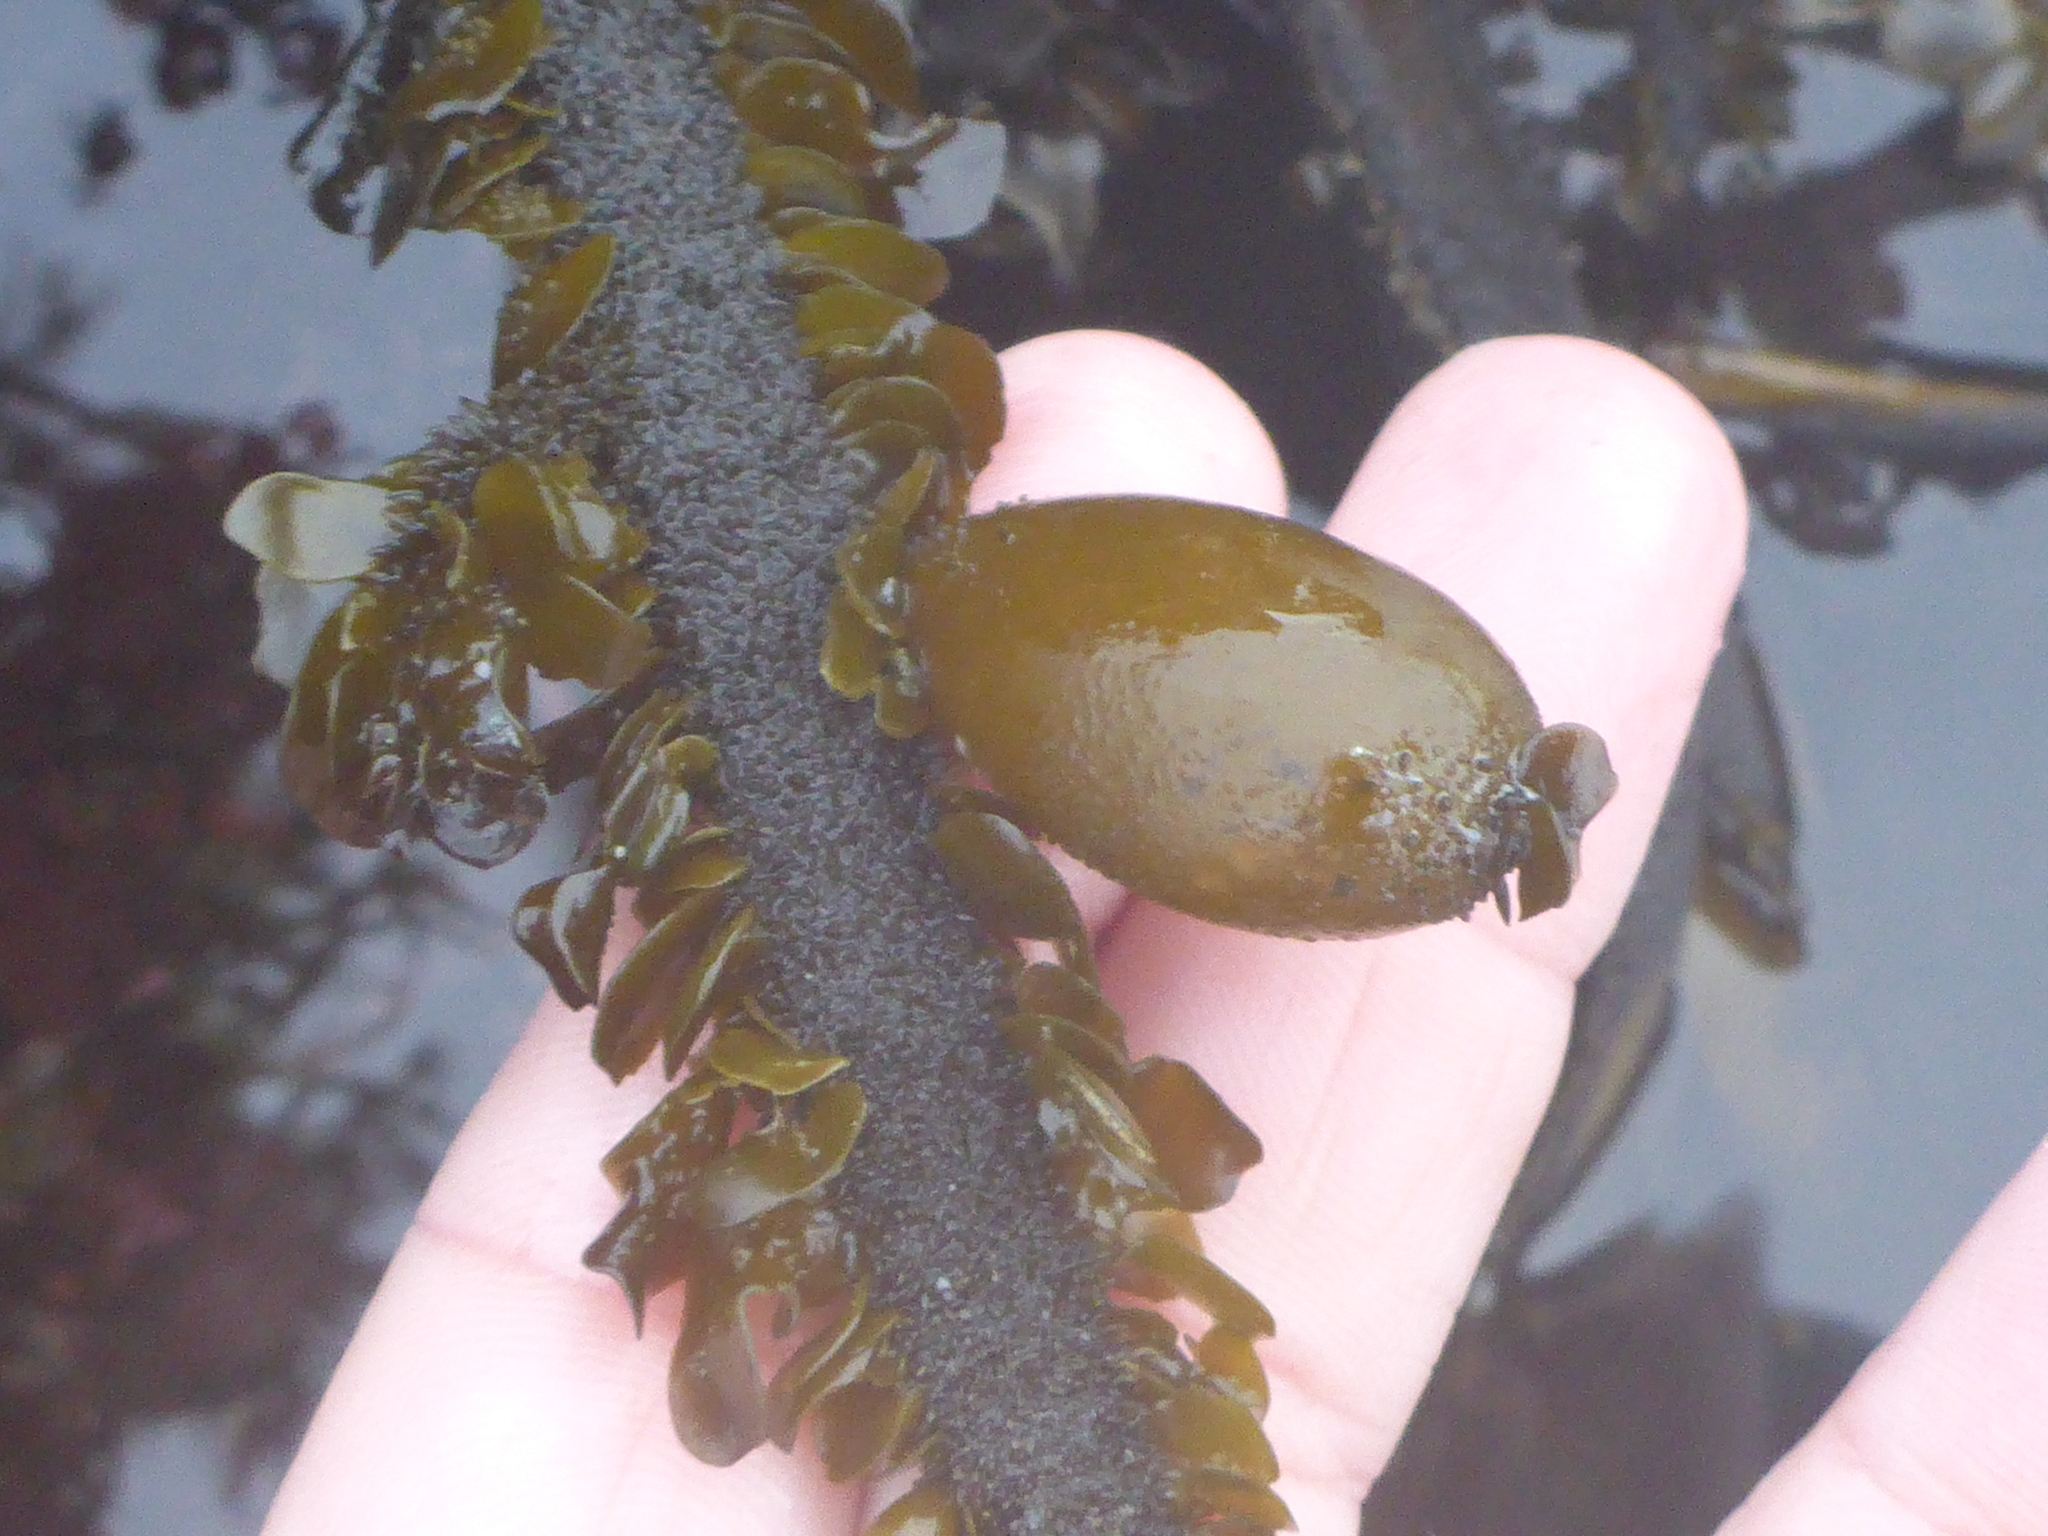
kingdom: Chromista
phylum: Ochrophyta
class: Phaeophyceae
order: Laminariales
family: Lessoniaceae
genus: Egregia
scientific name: Egregia menziesii
